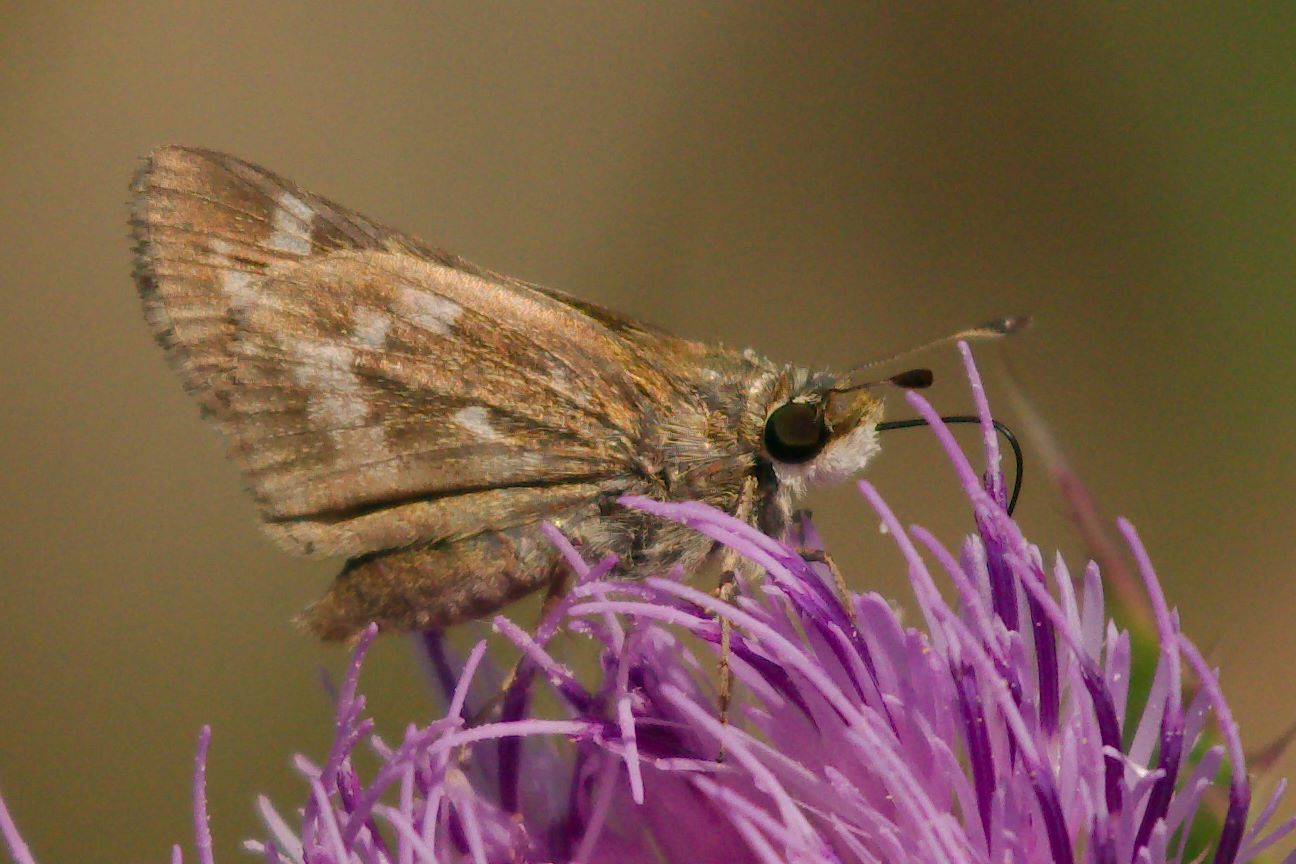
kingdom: Animalia
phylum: Arthropoda
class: Insecta
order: Lepidoptera
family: Hesperiidae
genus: Atalopedes
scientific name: Atalopedes
